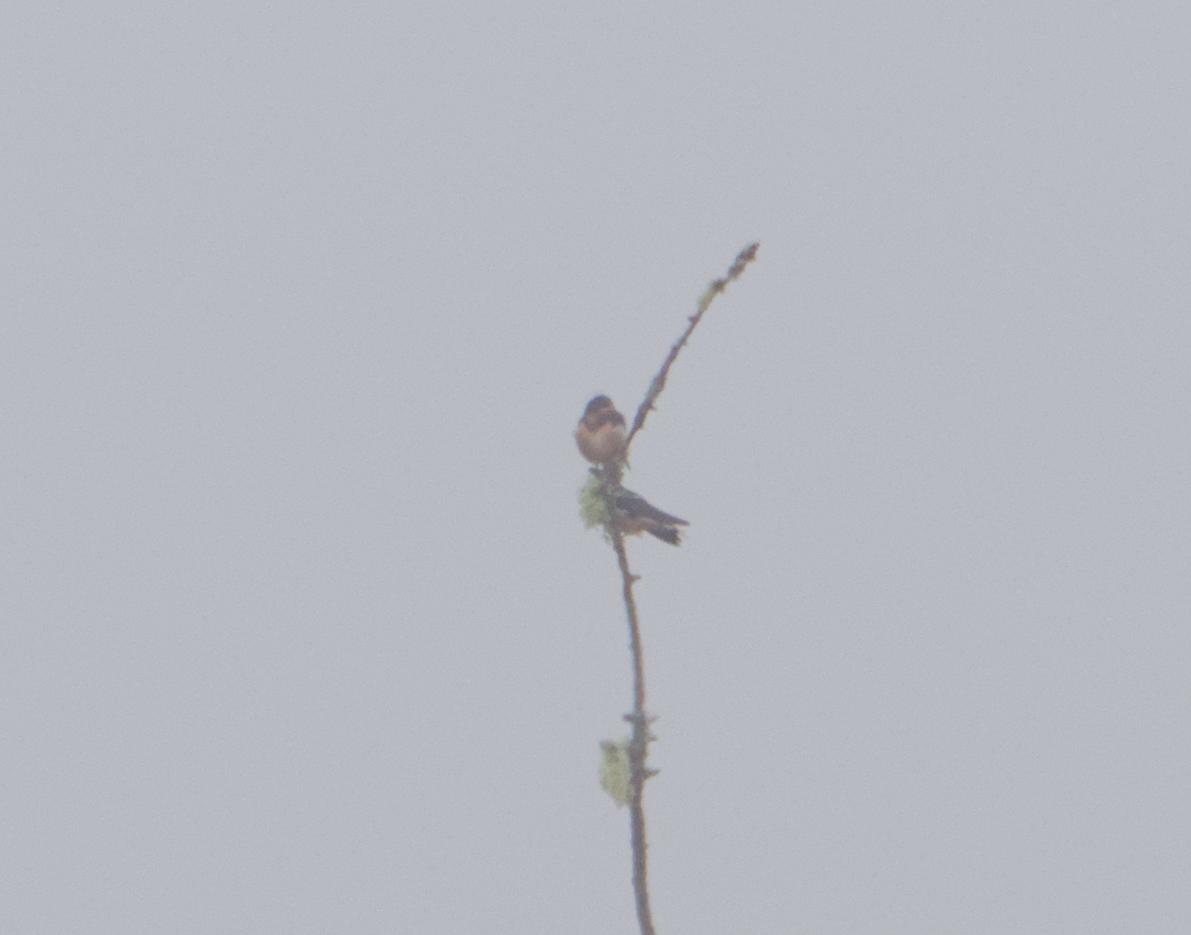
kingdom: Animalia
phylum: Chordata
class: Aves
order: Passeriformes
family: Hirundinidae
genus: Hirundo
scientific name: Hirundo rustica
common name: Barn swallow
